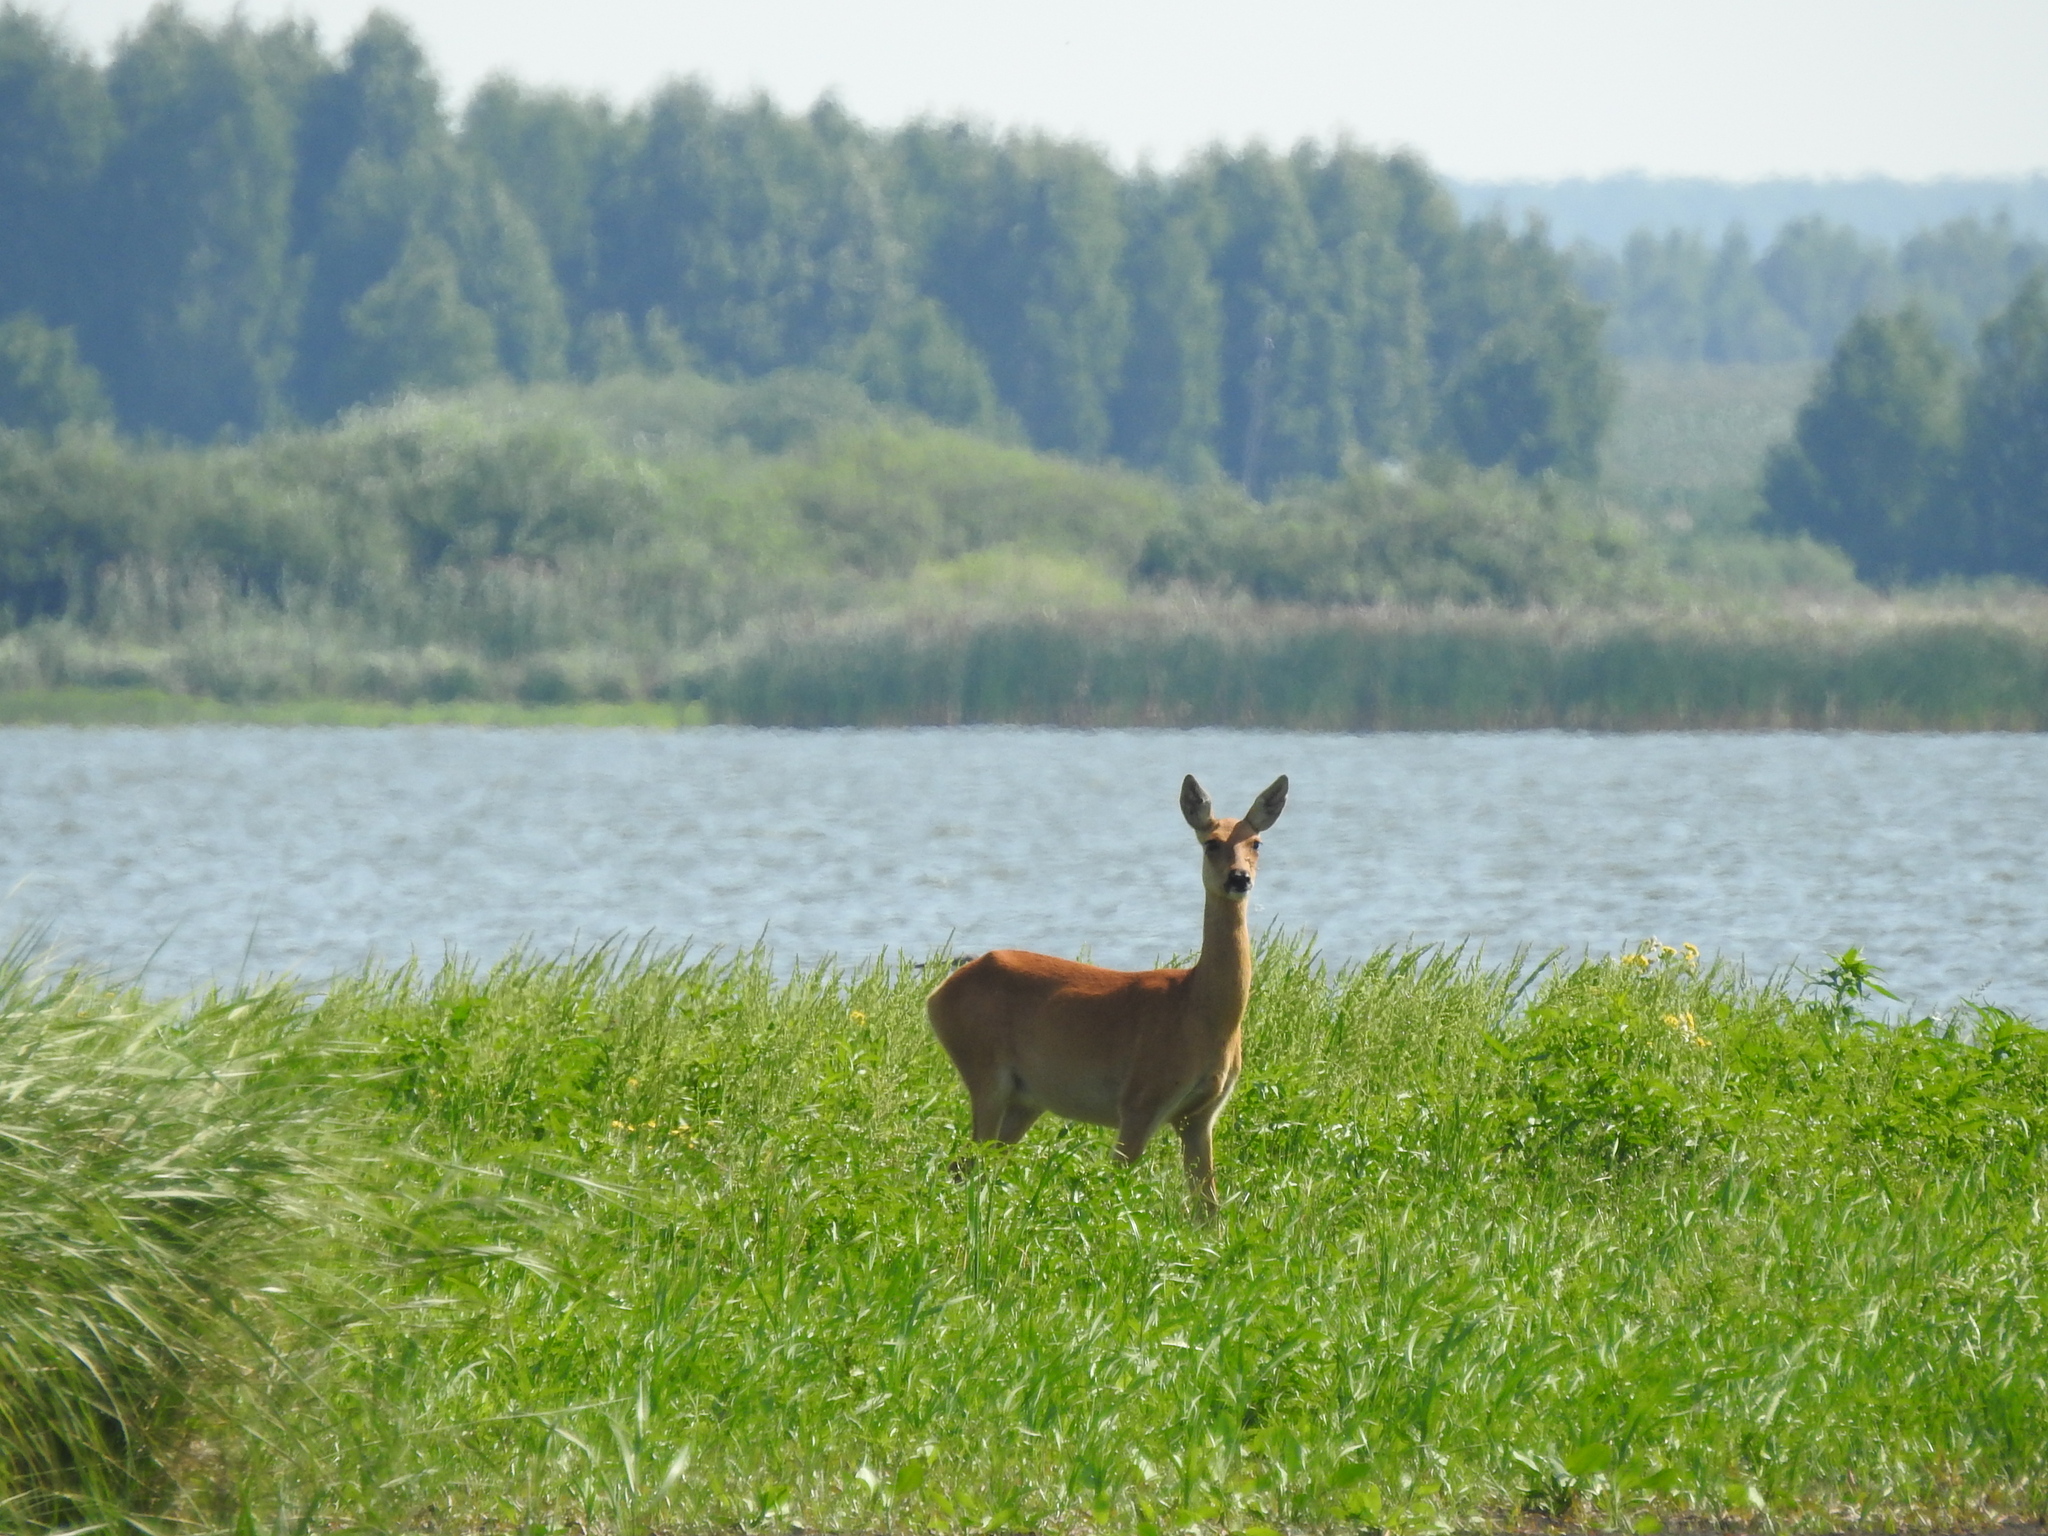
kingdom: Animalia
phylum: Chordata
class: Mammalia
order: Artiodactyla
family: Cervidae
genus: Capreolus
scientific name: Capreolus pygargus
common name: Siberian roe
